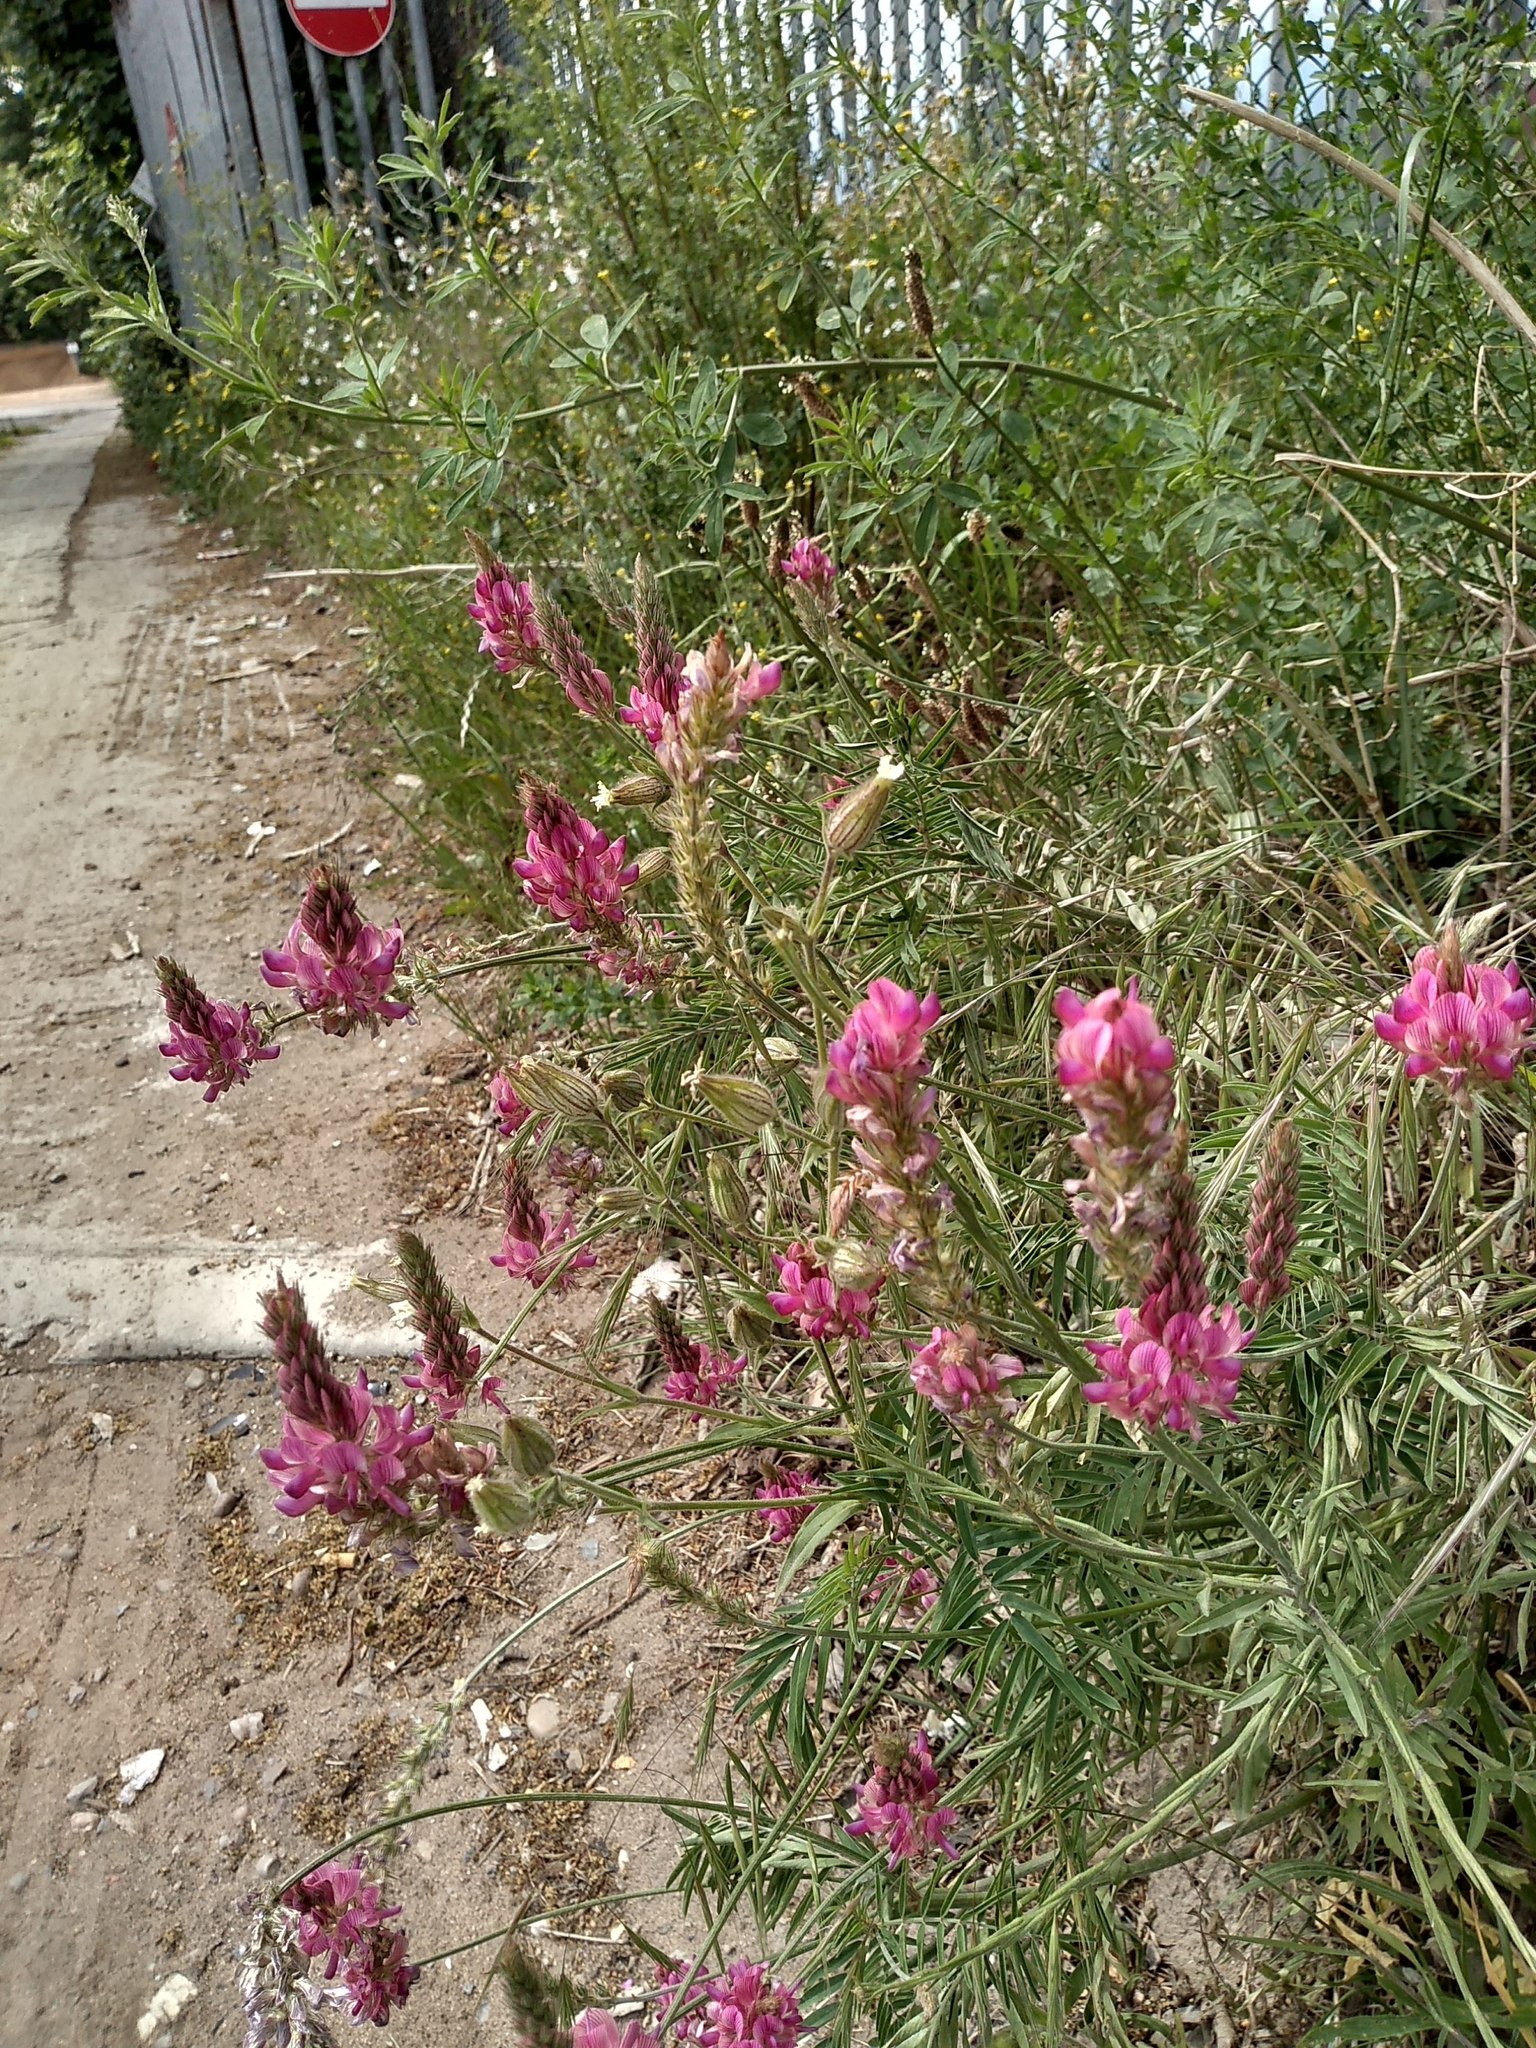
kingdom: Plantae
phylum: Tracheophyta
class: Magnoliopsida
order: Fabales
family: Fabaceae
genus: Onobrychis
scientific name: Onobrychis viciifolia
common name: Sainfoin
